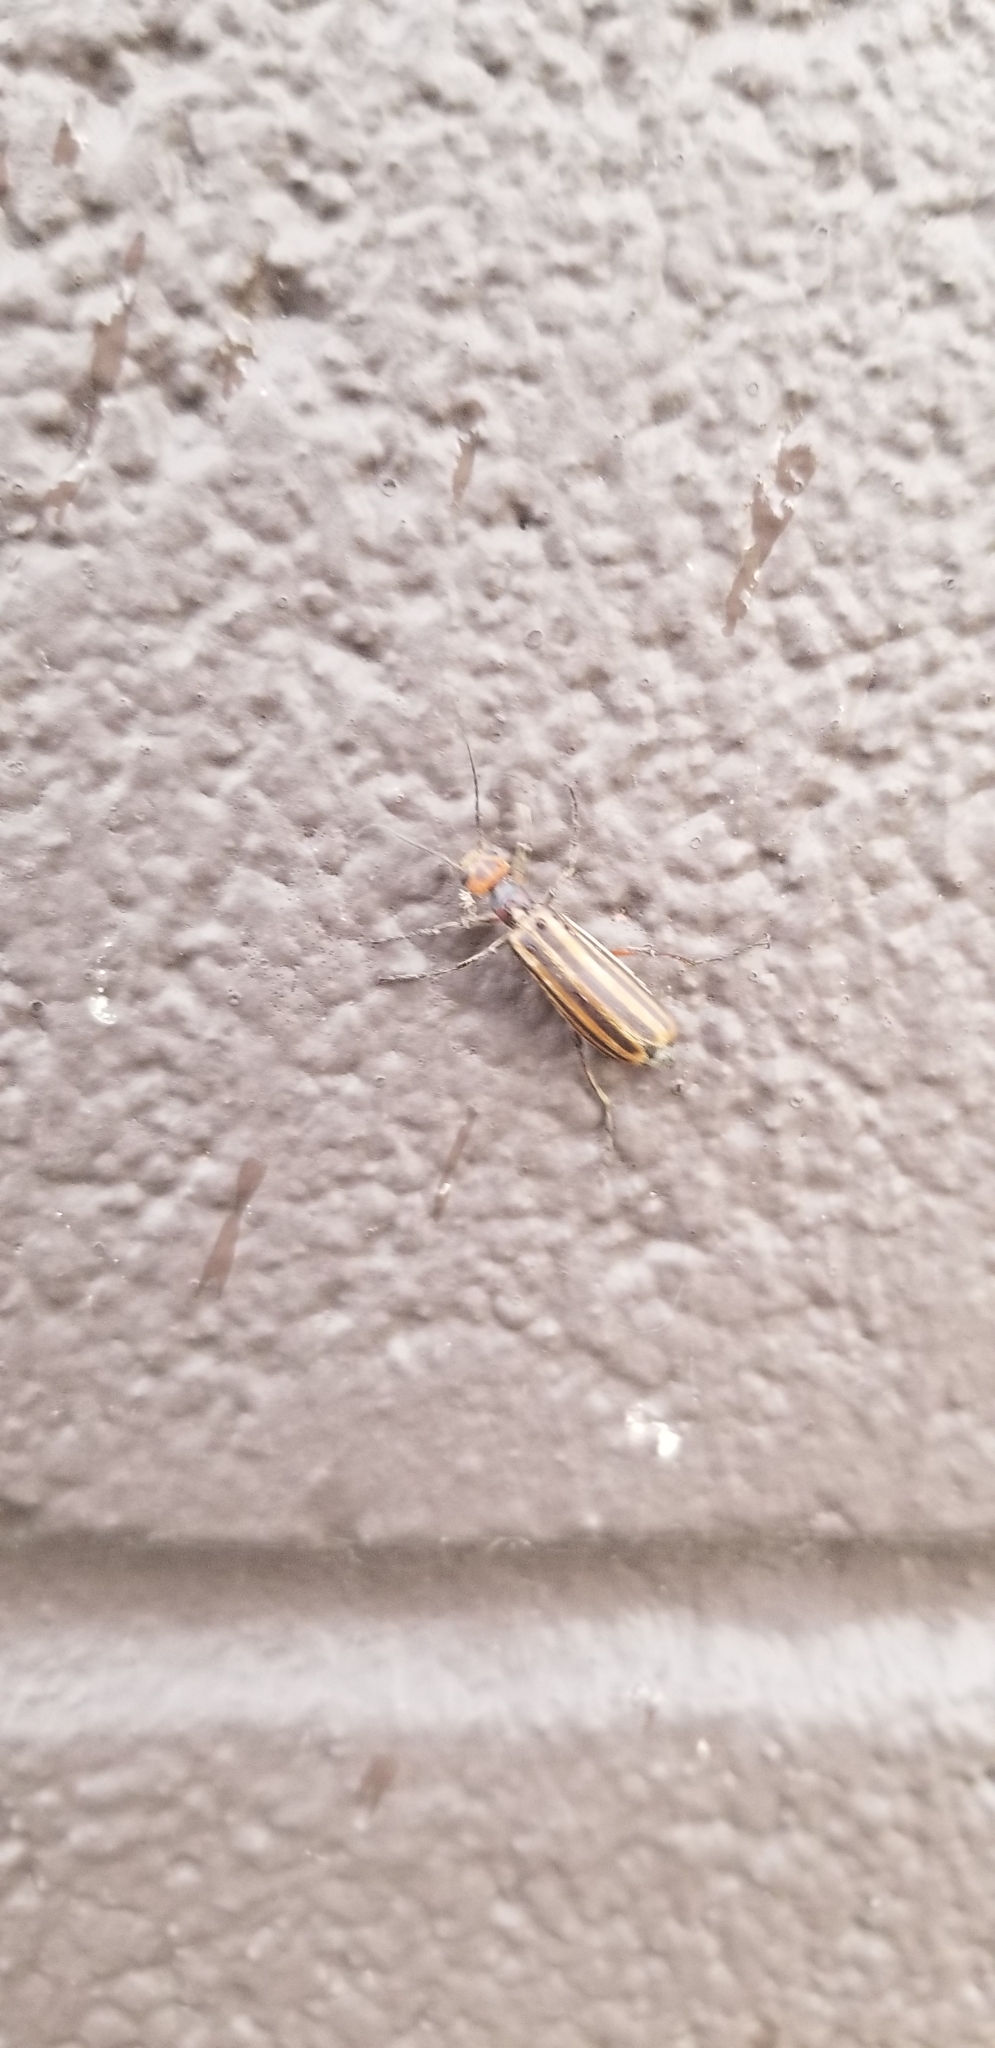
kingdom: Animalia
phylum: Arthropoda
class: Insecta
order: Coleoptera
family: Meloidae
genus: Epicauta
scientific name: Epicauta vittata
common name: Old-fashioned potato beetle
